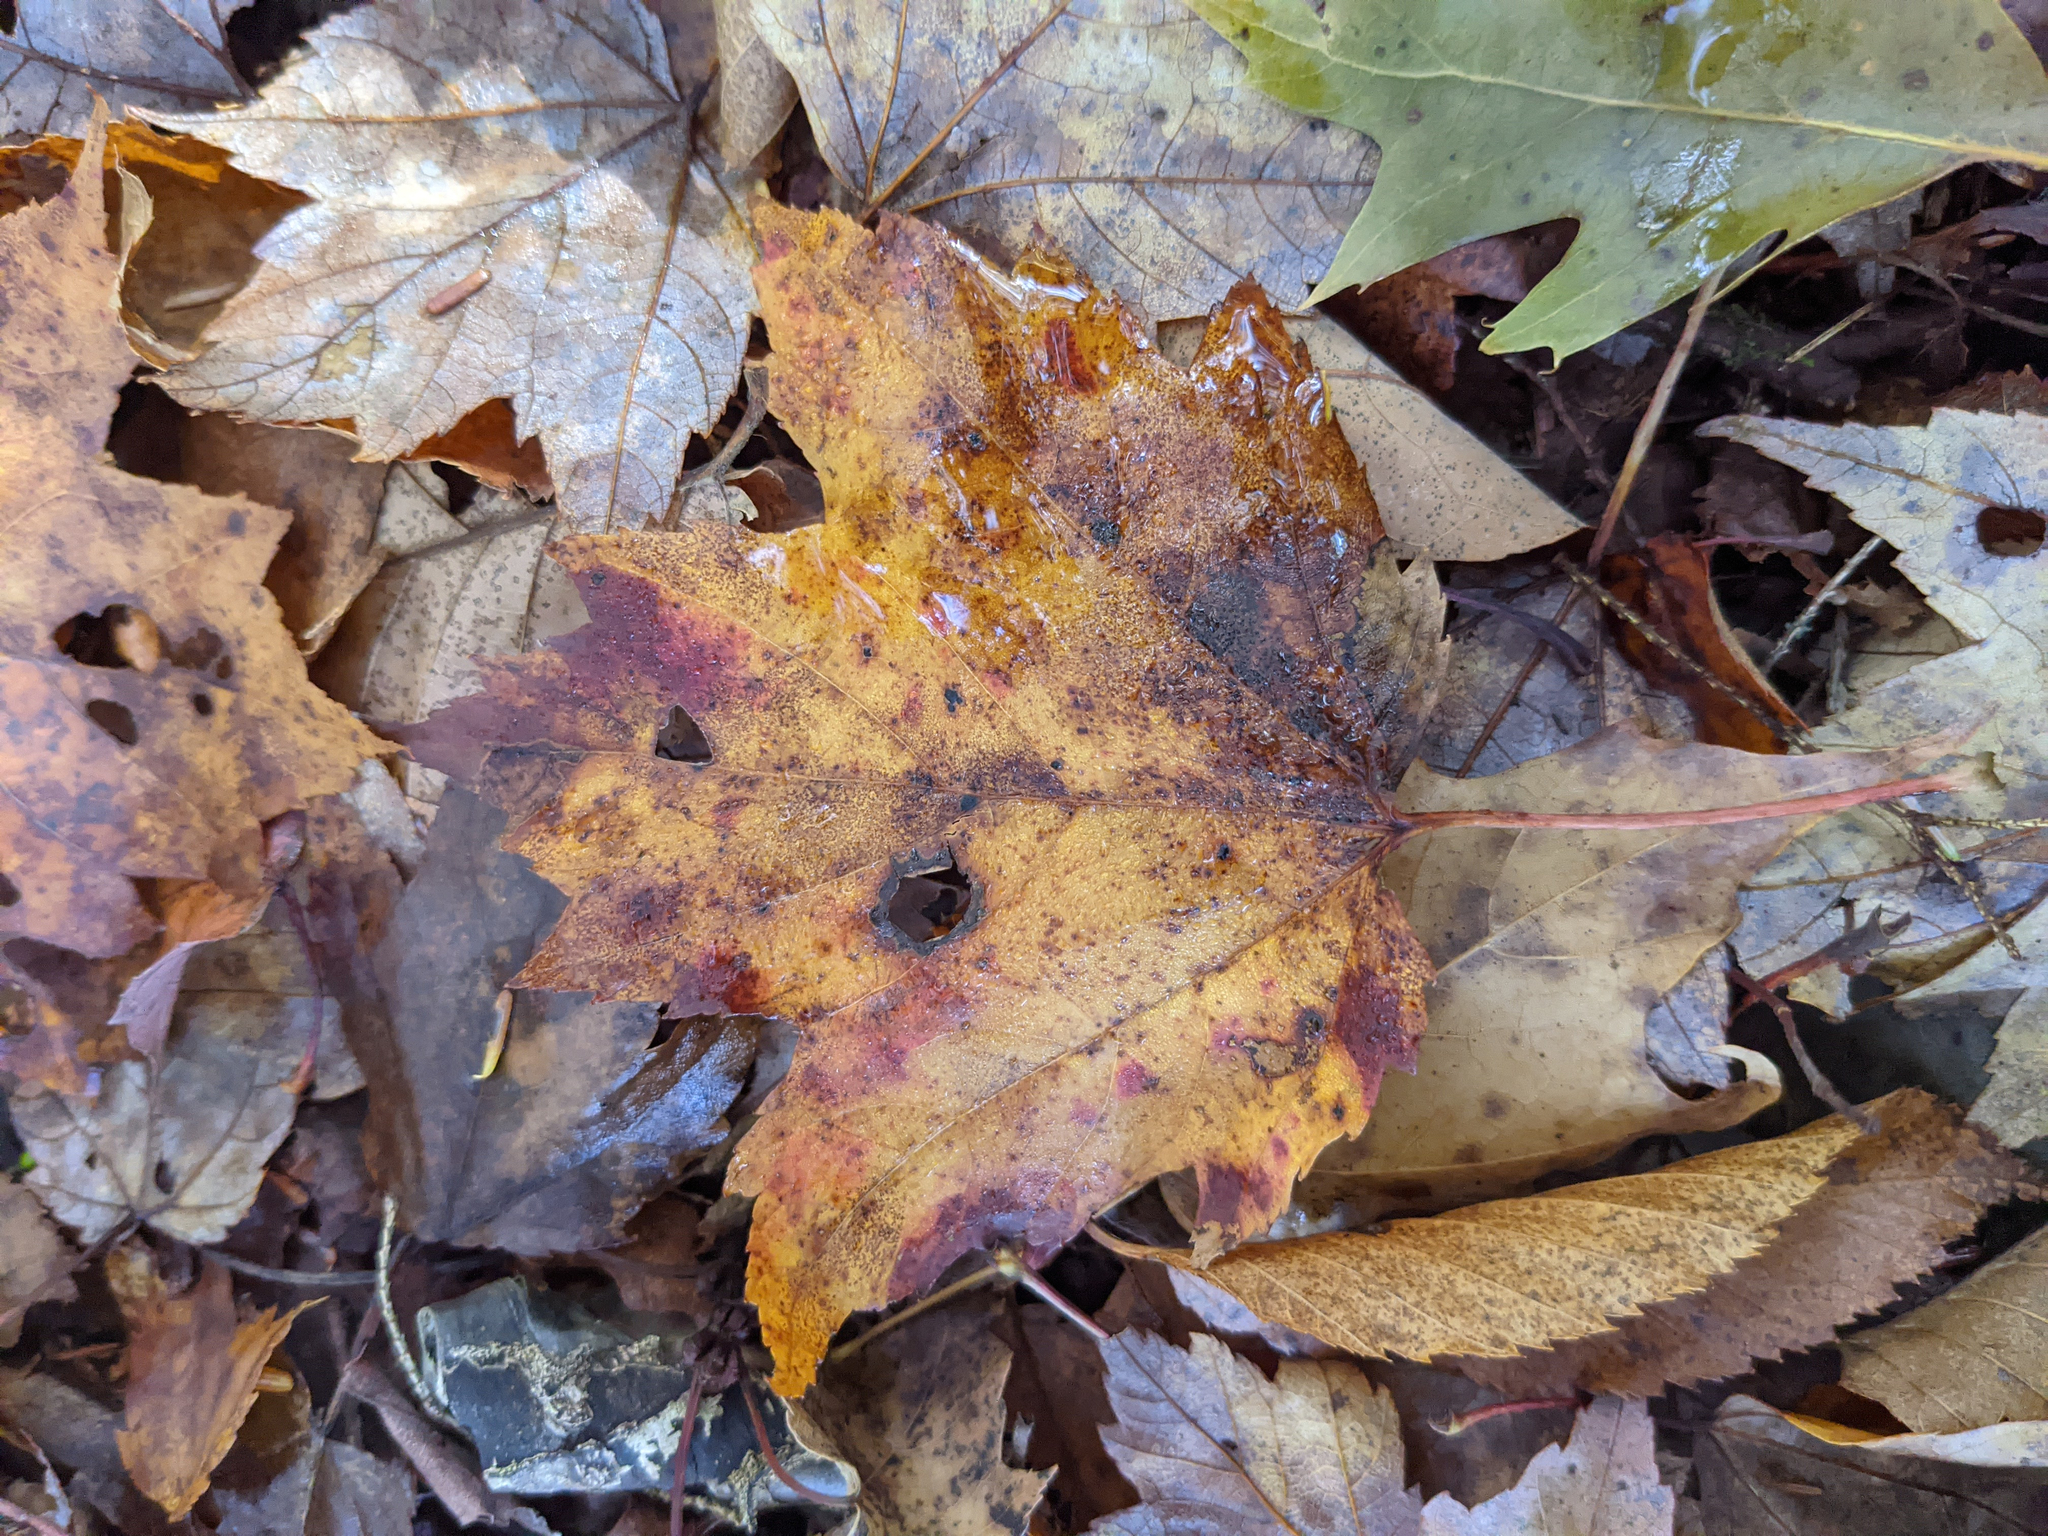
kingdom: Plantae
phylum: Tracheophyta
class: Magnoliopsida
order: Sapindales
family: Sapindaceae
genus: Acer
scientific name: Acer rubrum
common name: Red maple
